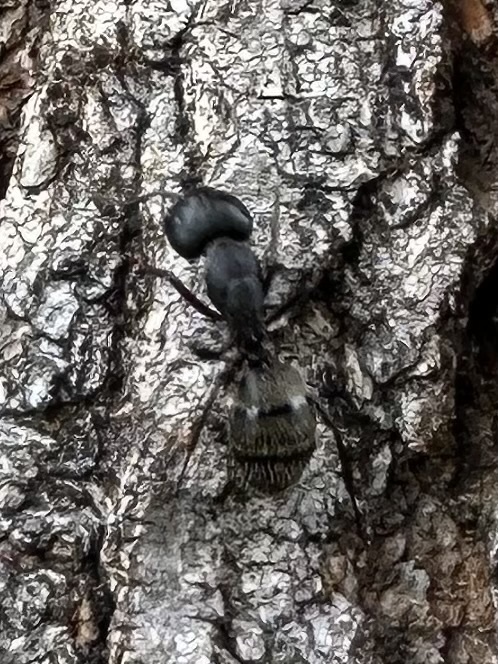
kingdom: Animalia
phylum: Arthropoda
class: Insecta
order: Hymenoptera
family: Formicidae
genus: Camponotus
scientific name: Camponotus pennsylvanicus
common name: Black carpenter ant
